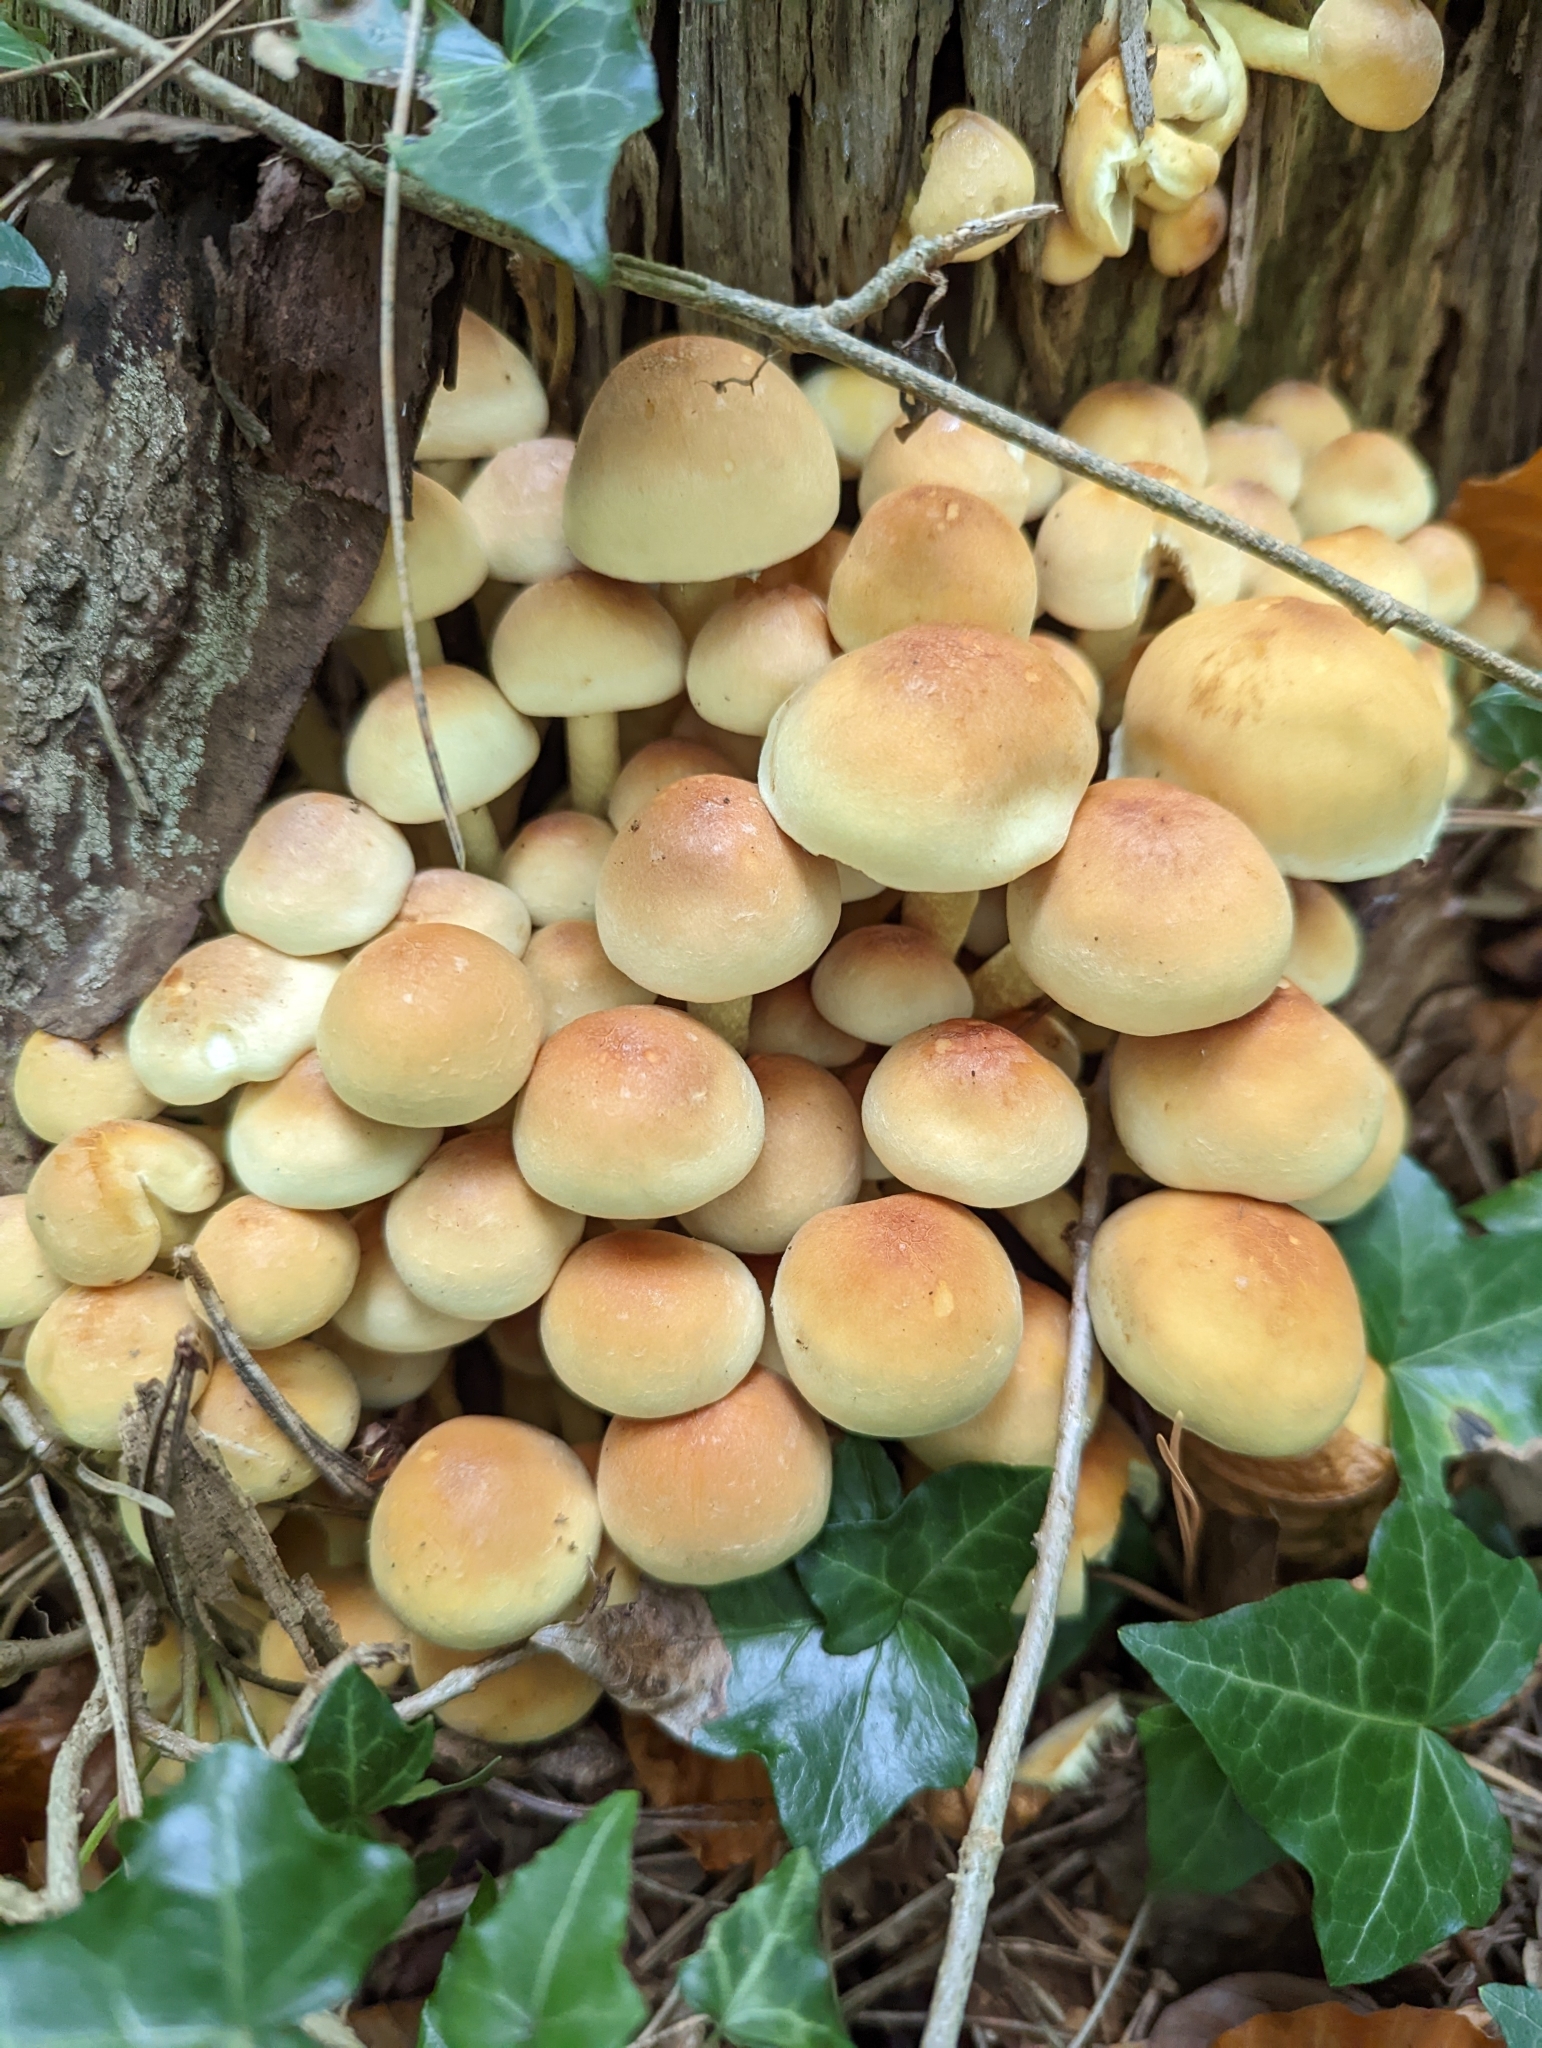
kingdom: Fungi
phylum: Basidiomycota
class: Agaricomycetes
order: Agaricales
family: Strophariaceae
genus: Hypholoma
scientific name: Hypholoma fasciculare
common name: Sulphur tuft
